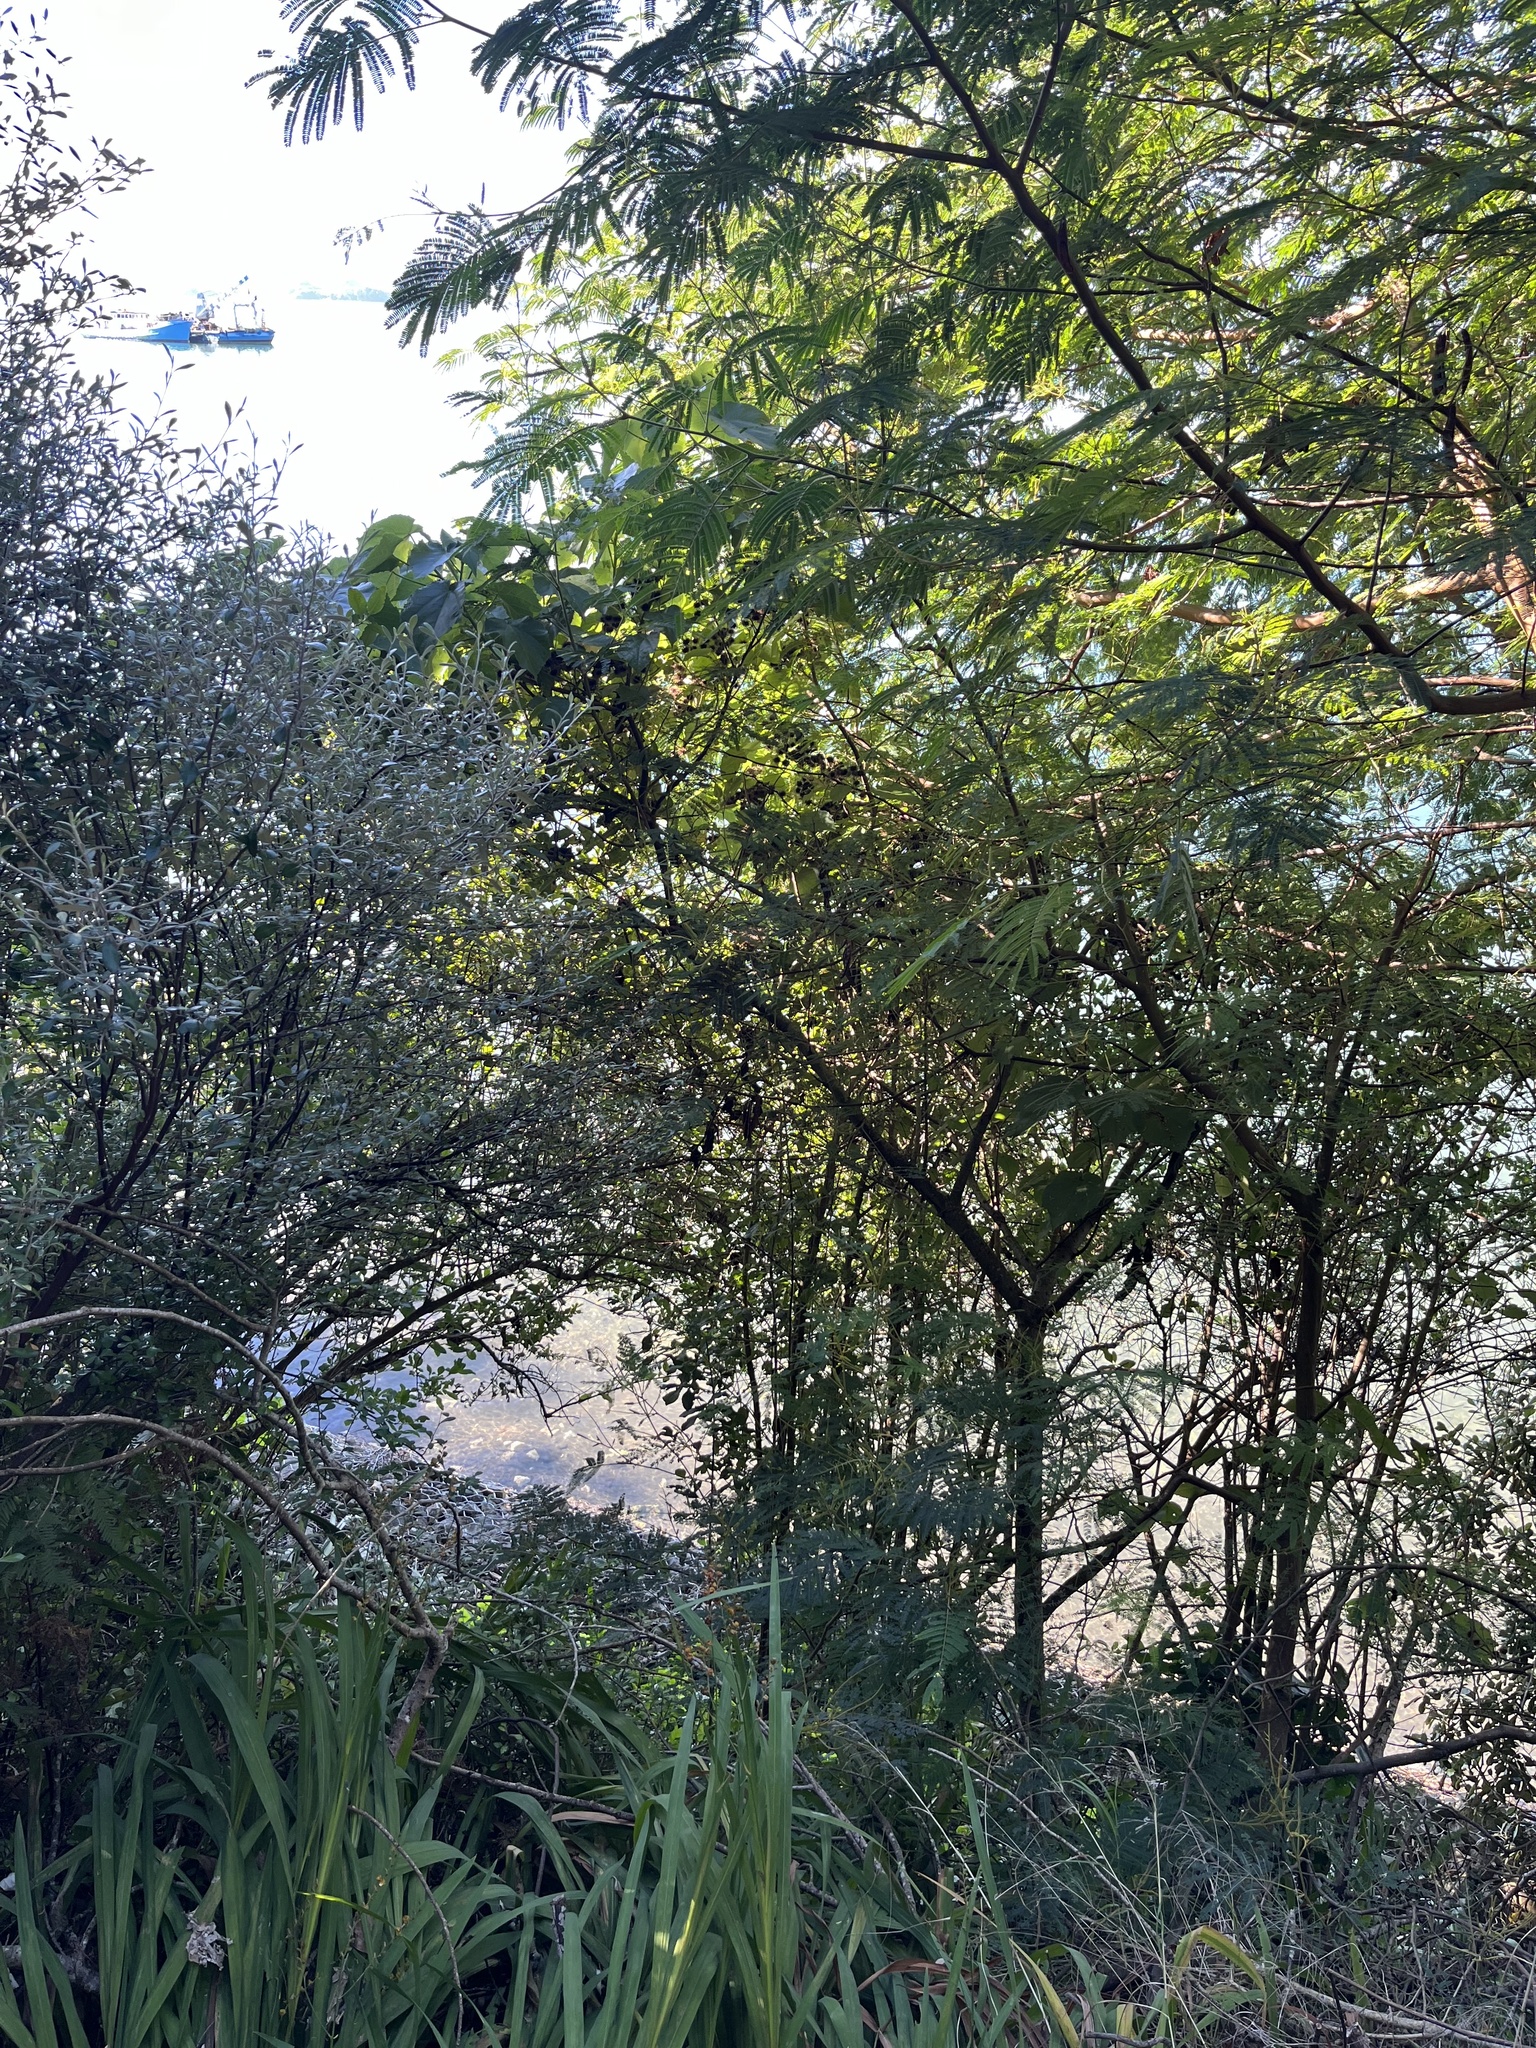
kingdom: Plantae
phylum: Tracheophyta
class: Magnoliopsida
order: Malvales
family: Malvaceae
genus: Entelea
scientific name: Entelea arborescens
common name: New zealand-mulberry
